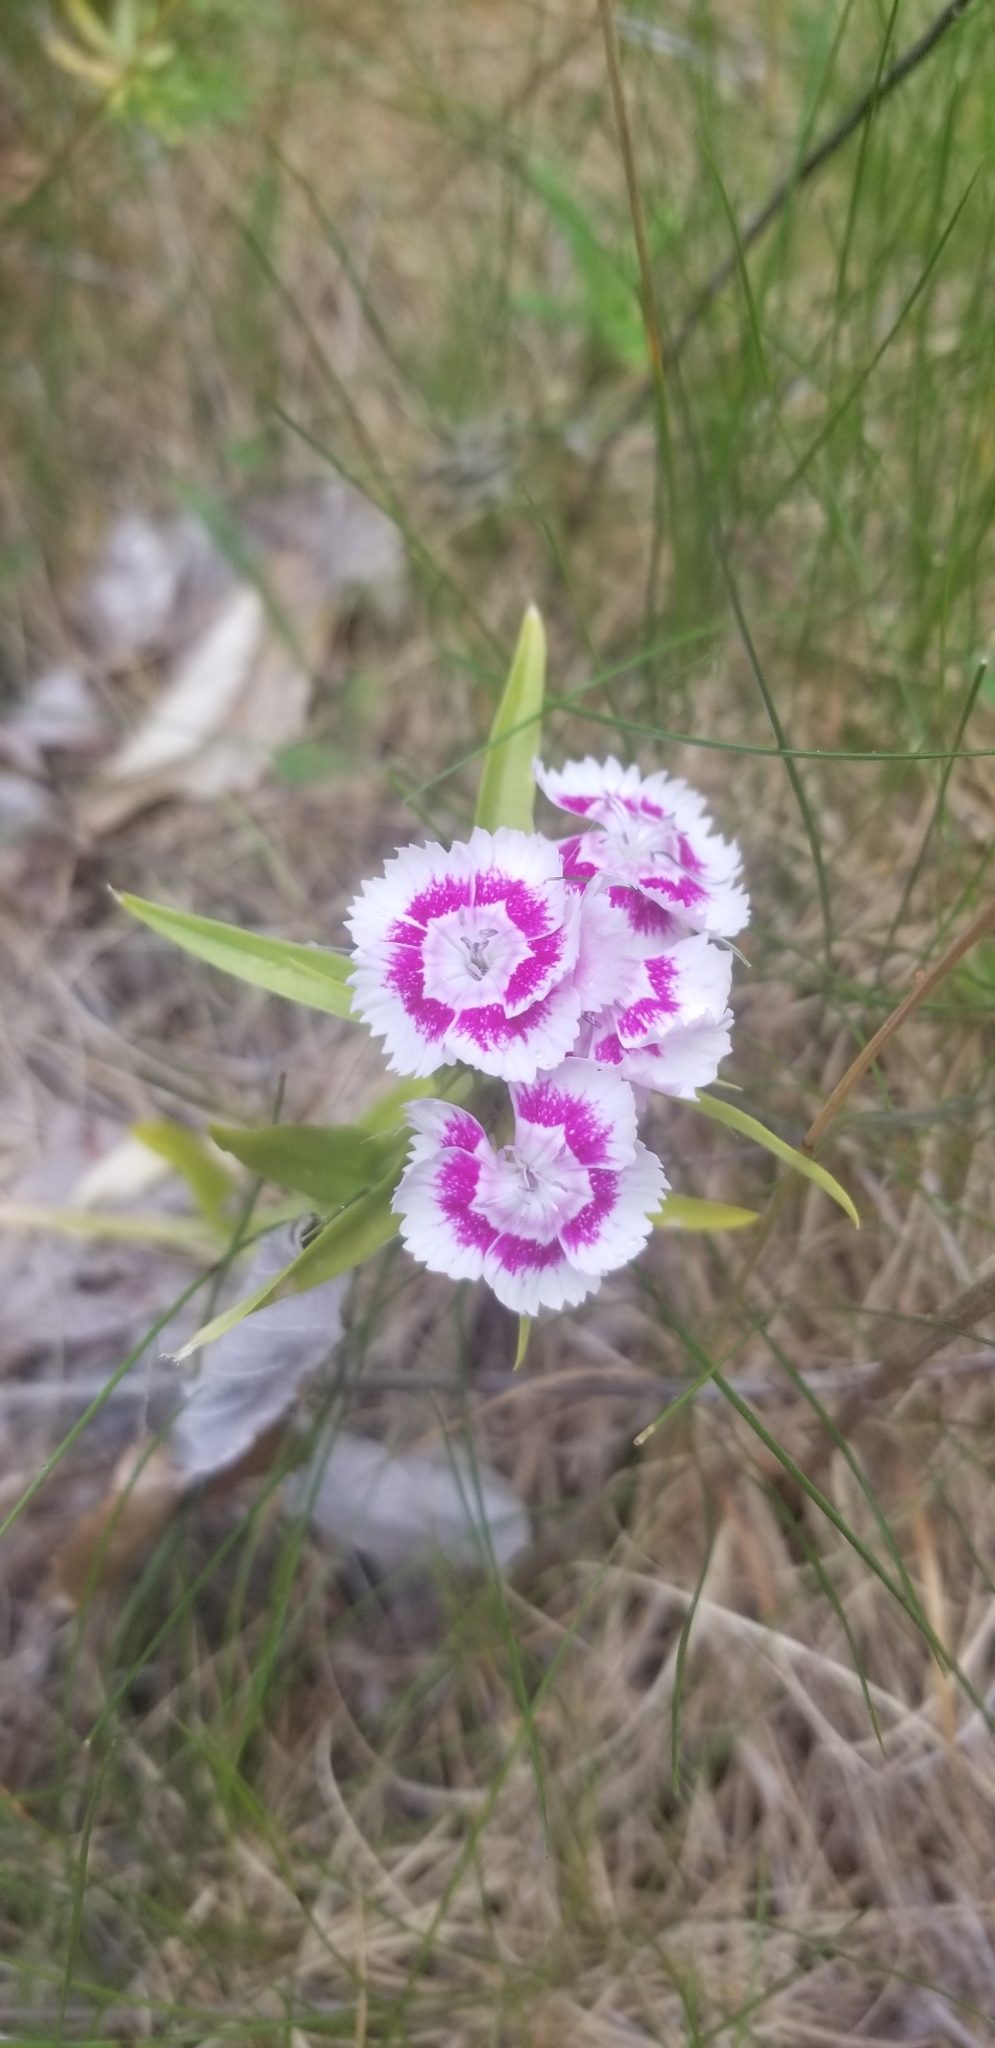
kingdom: Plantae
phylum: Tracheophyta
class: Magnoliopsida
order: Caryophyllales
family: Caryophyllaceae
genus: Dianthus
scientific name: Dianthus barbatus
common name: Sweet-william
